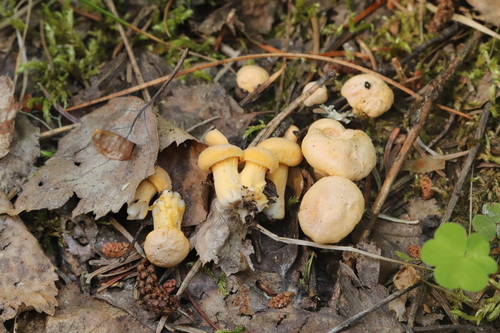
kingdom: Fungi
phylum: Basidiomycota
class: Agaricomycetes
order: Cantharellales
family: Hydnaceae
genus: Cantharellus
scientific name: Cantharellus cibarius
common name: Chanterelle
